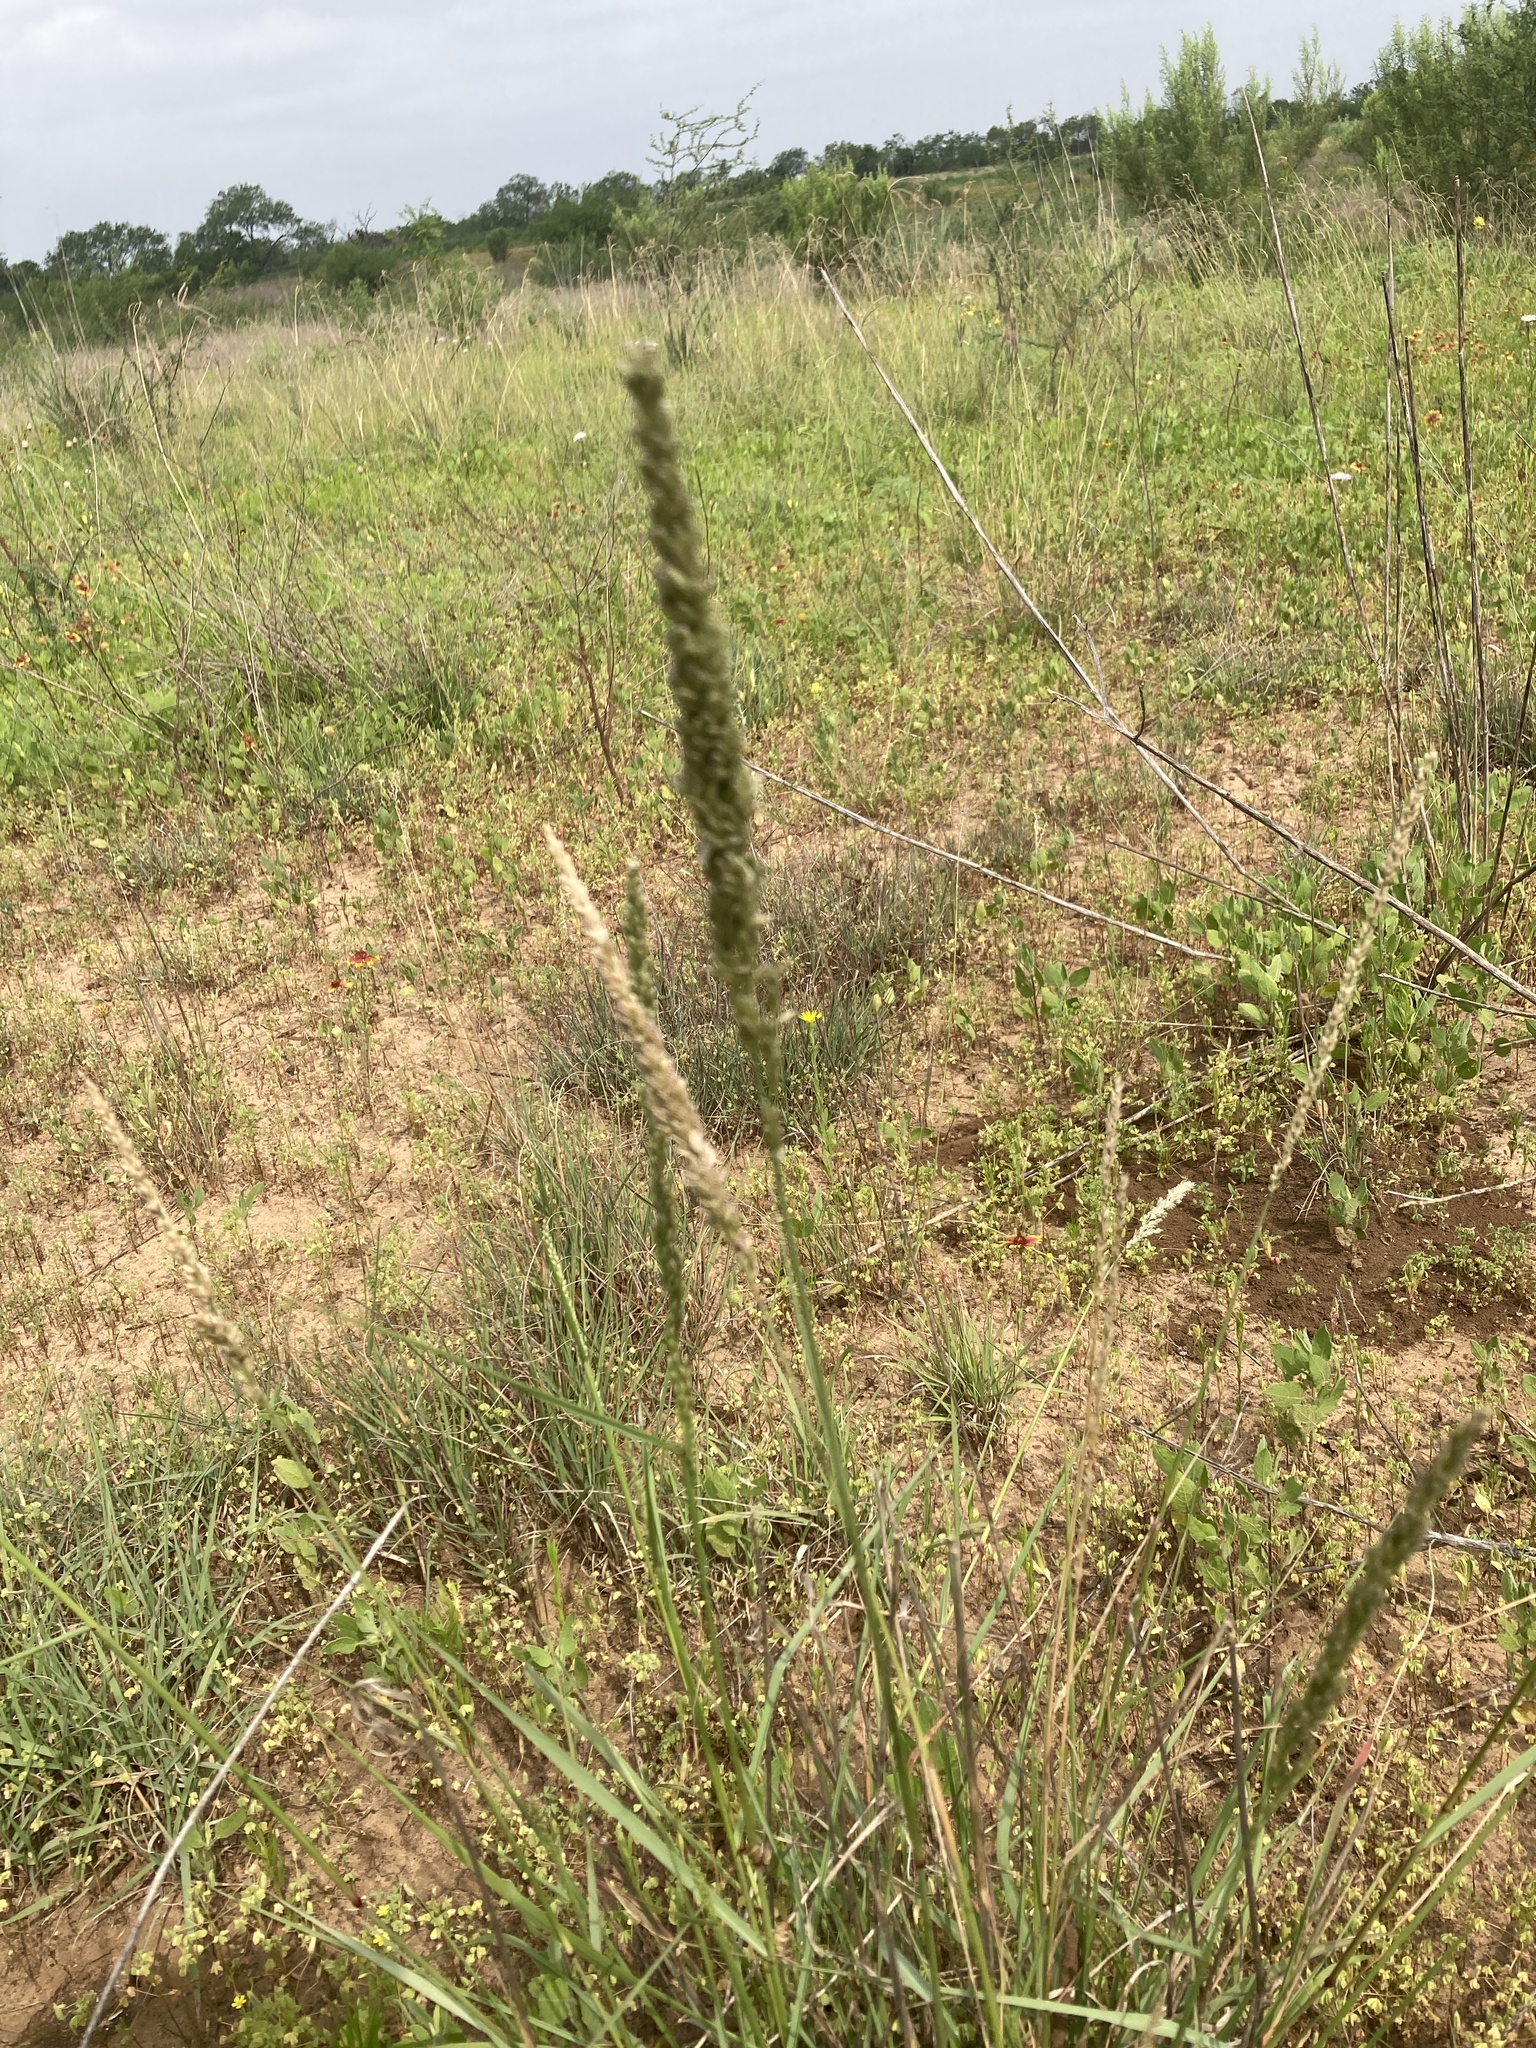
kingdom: Plantae
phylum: Tracheophyta
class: Liliopsida
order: Poales
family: Poaceae
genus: Tridens
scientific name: Tridens albescens
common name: White tridens
